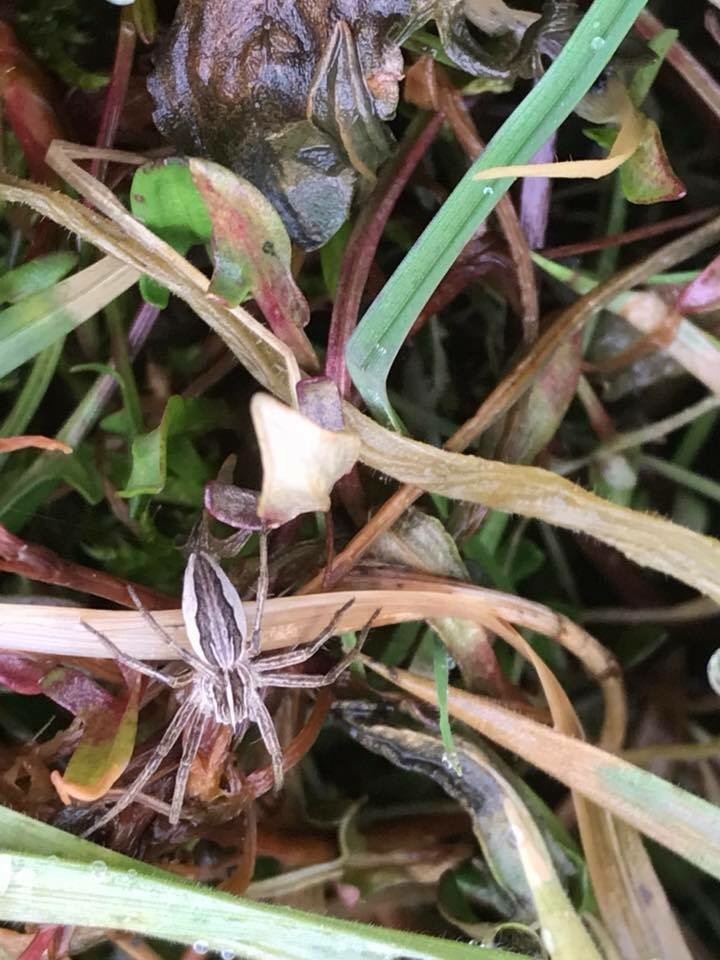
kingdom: Animalia
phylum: Arthropoda
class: Arachnida
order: Araneae
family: Pisauridae
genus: Pisaura
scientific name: Pisaura mirabilis
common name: Tent spider
